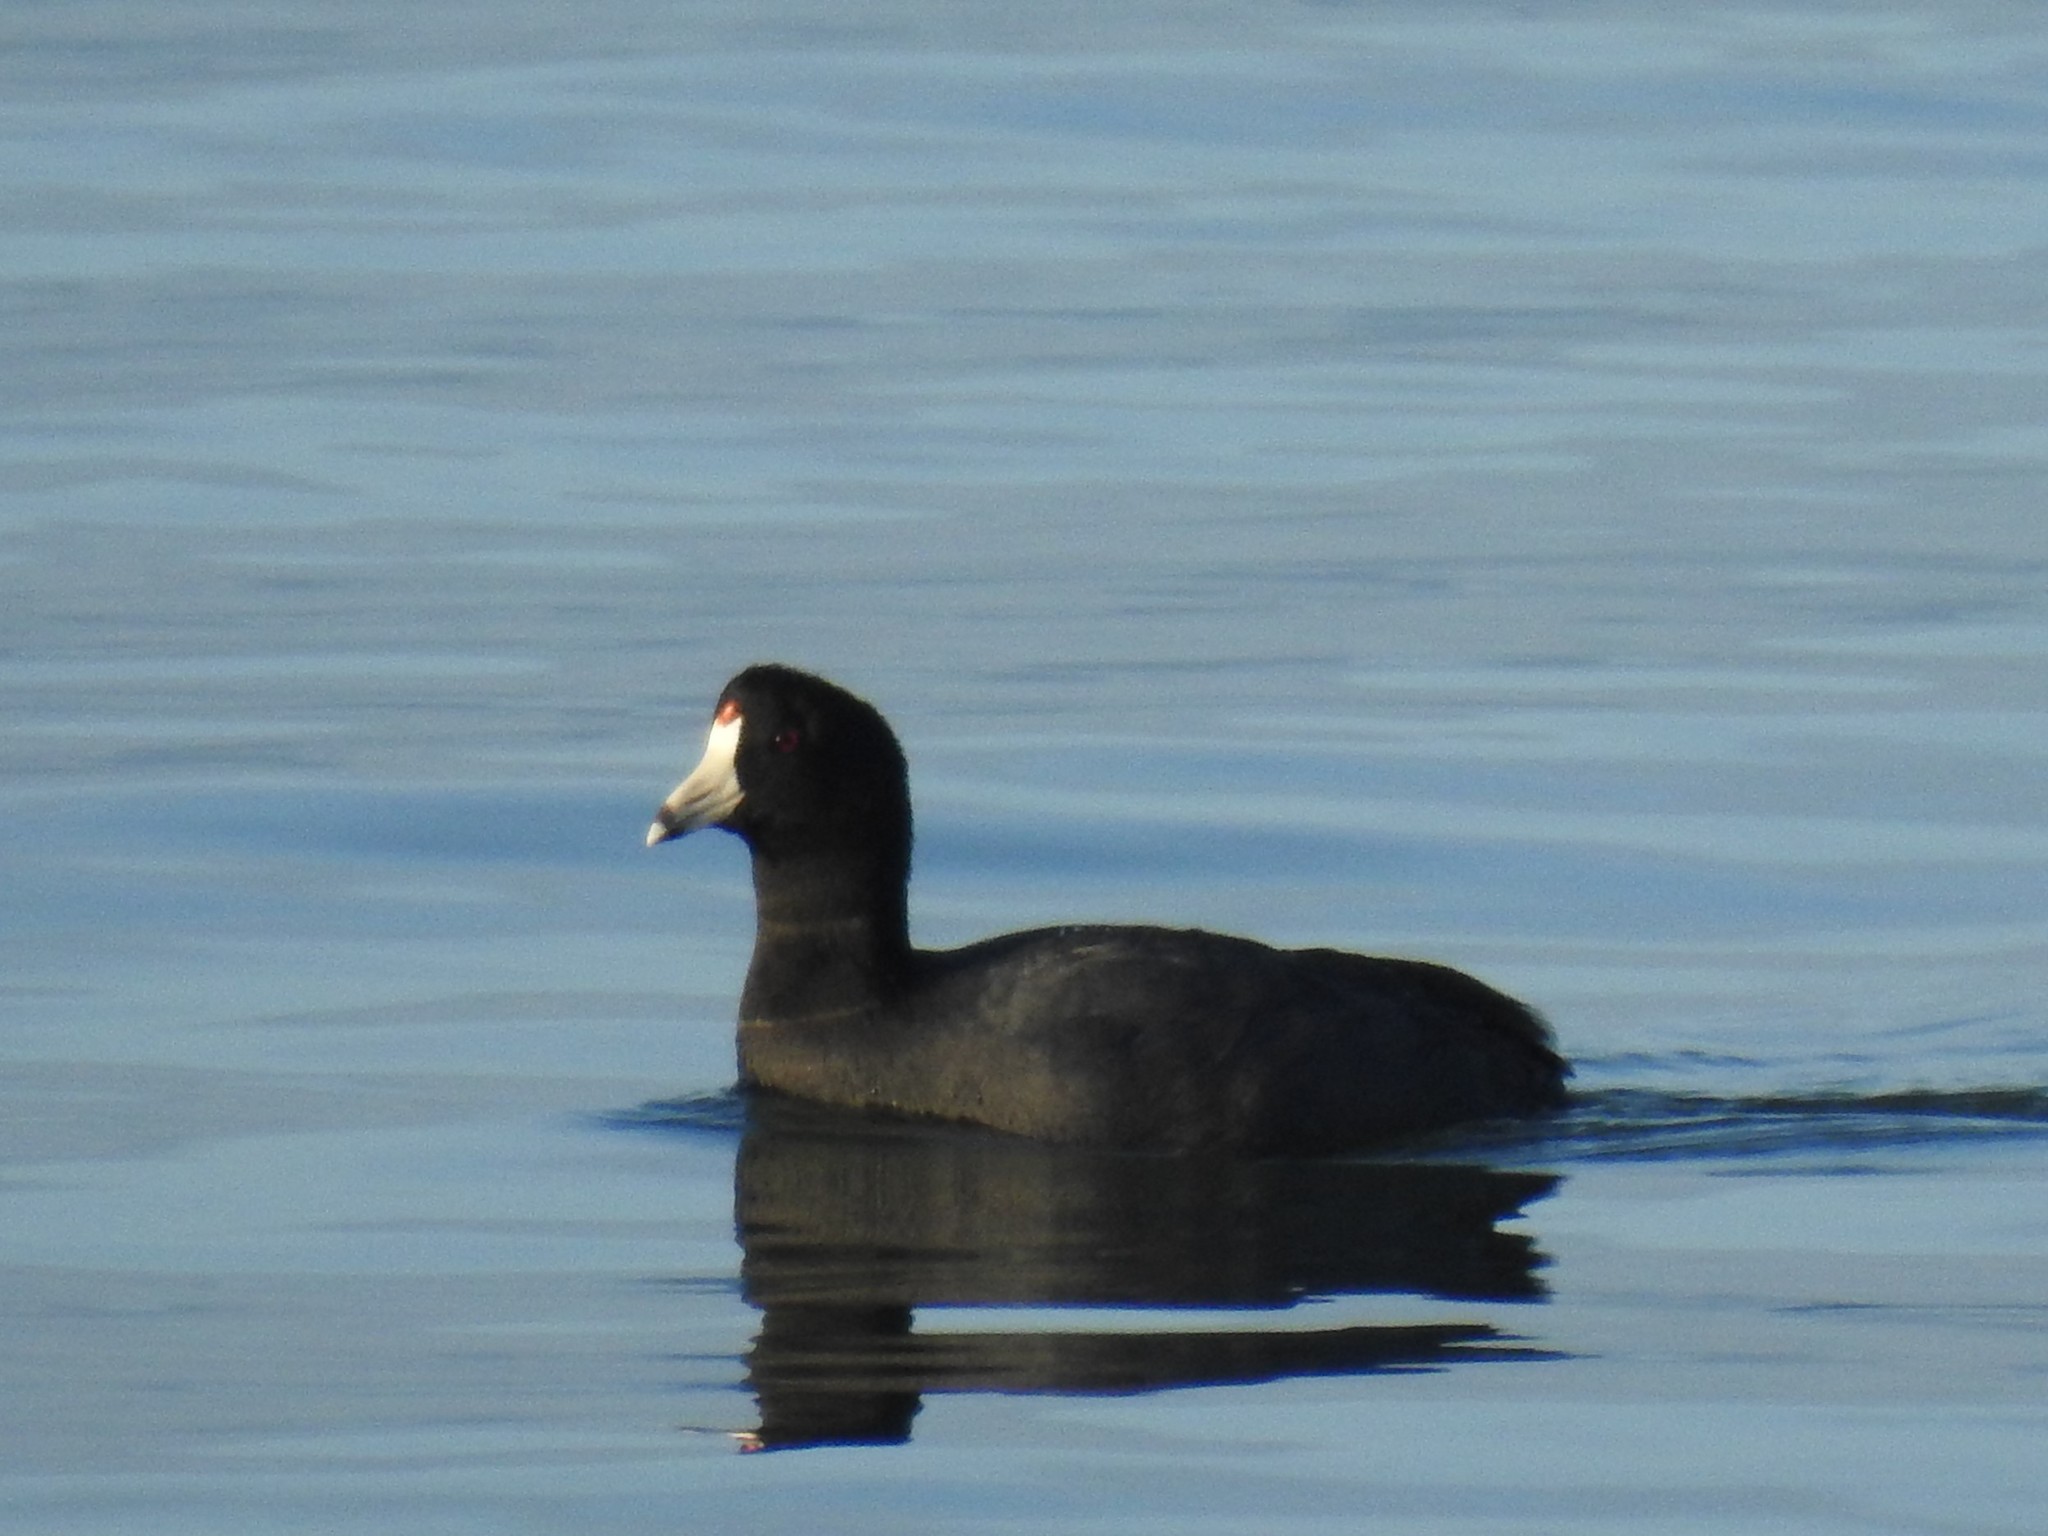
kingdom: Animalia
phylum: Chordata
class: Aves
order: Gruiformes
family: Rallidae
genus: Fulica
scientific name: Fulica americana
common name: American coot
